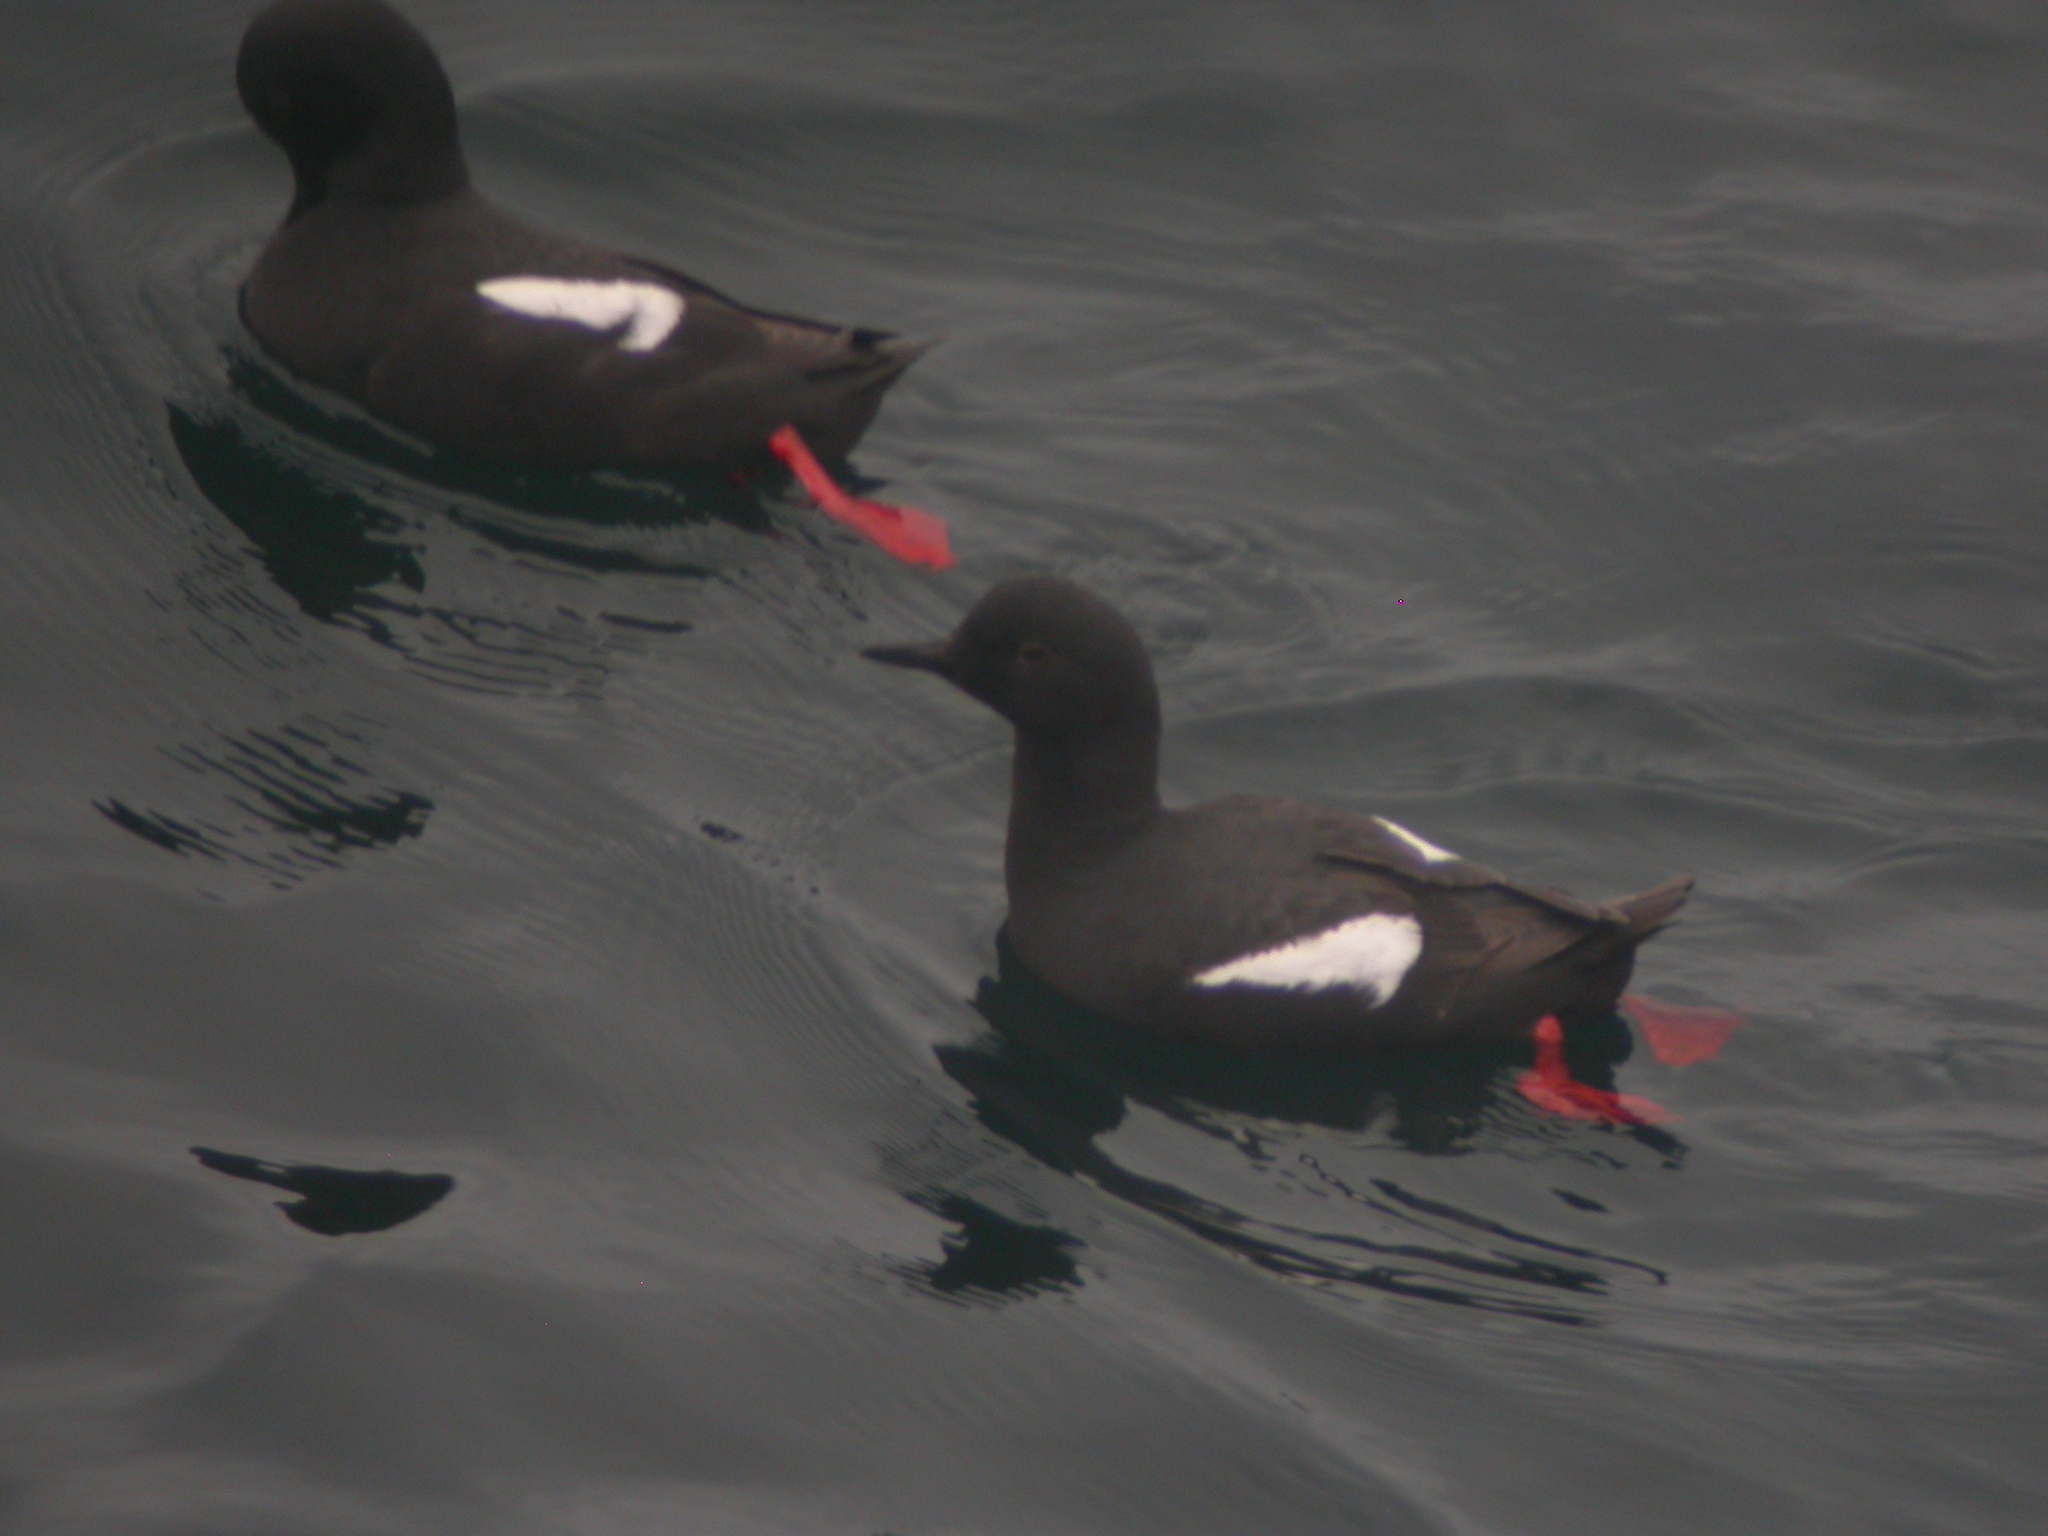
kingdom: Animalia
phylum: Chordata
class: Aves
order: Charadriiformes
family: Alcidae
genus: Cepphus
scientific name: Cepphus columba
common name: Pigeon guillemot
